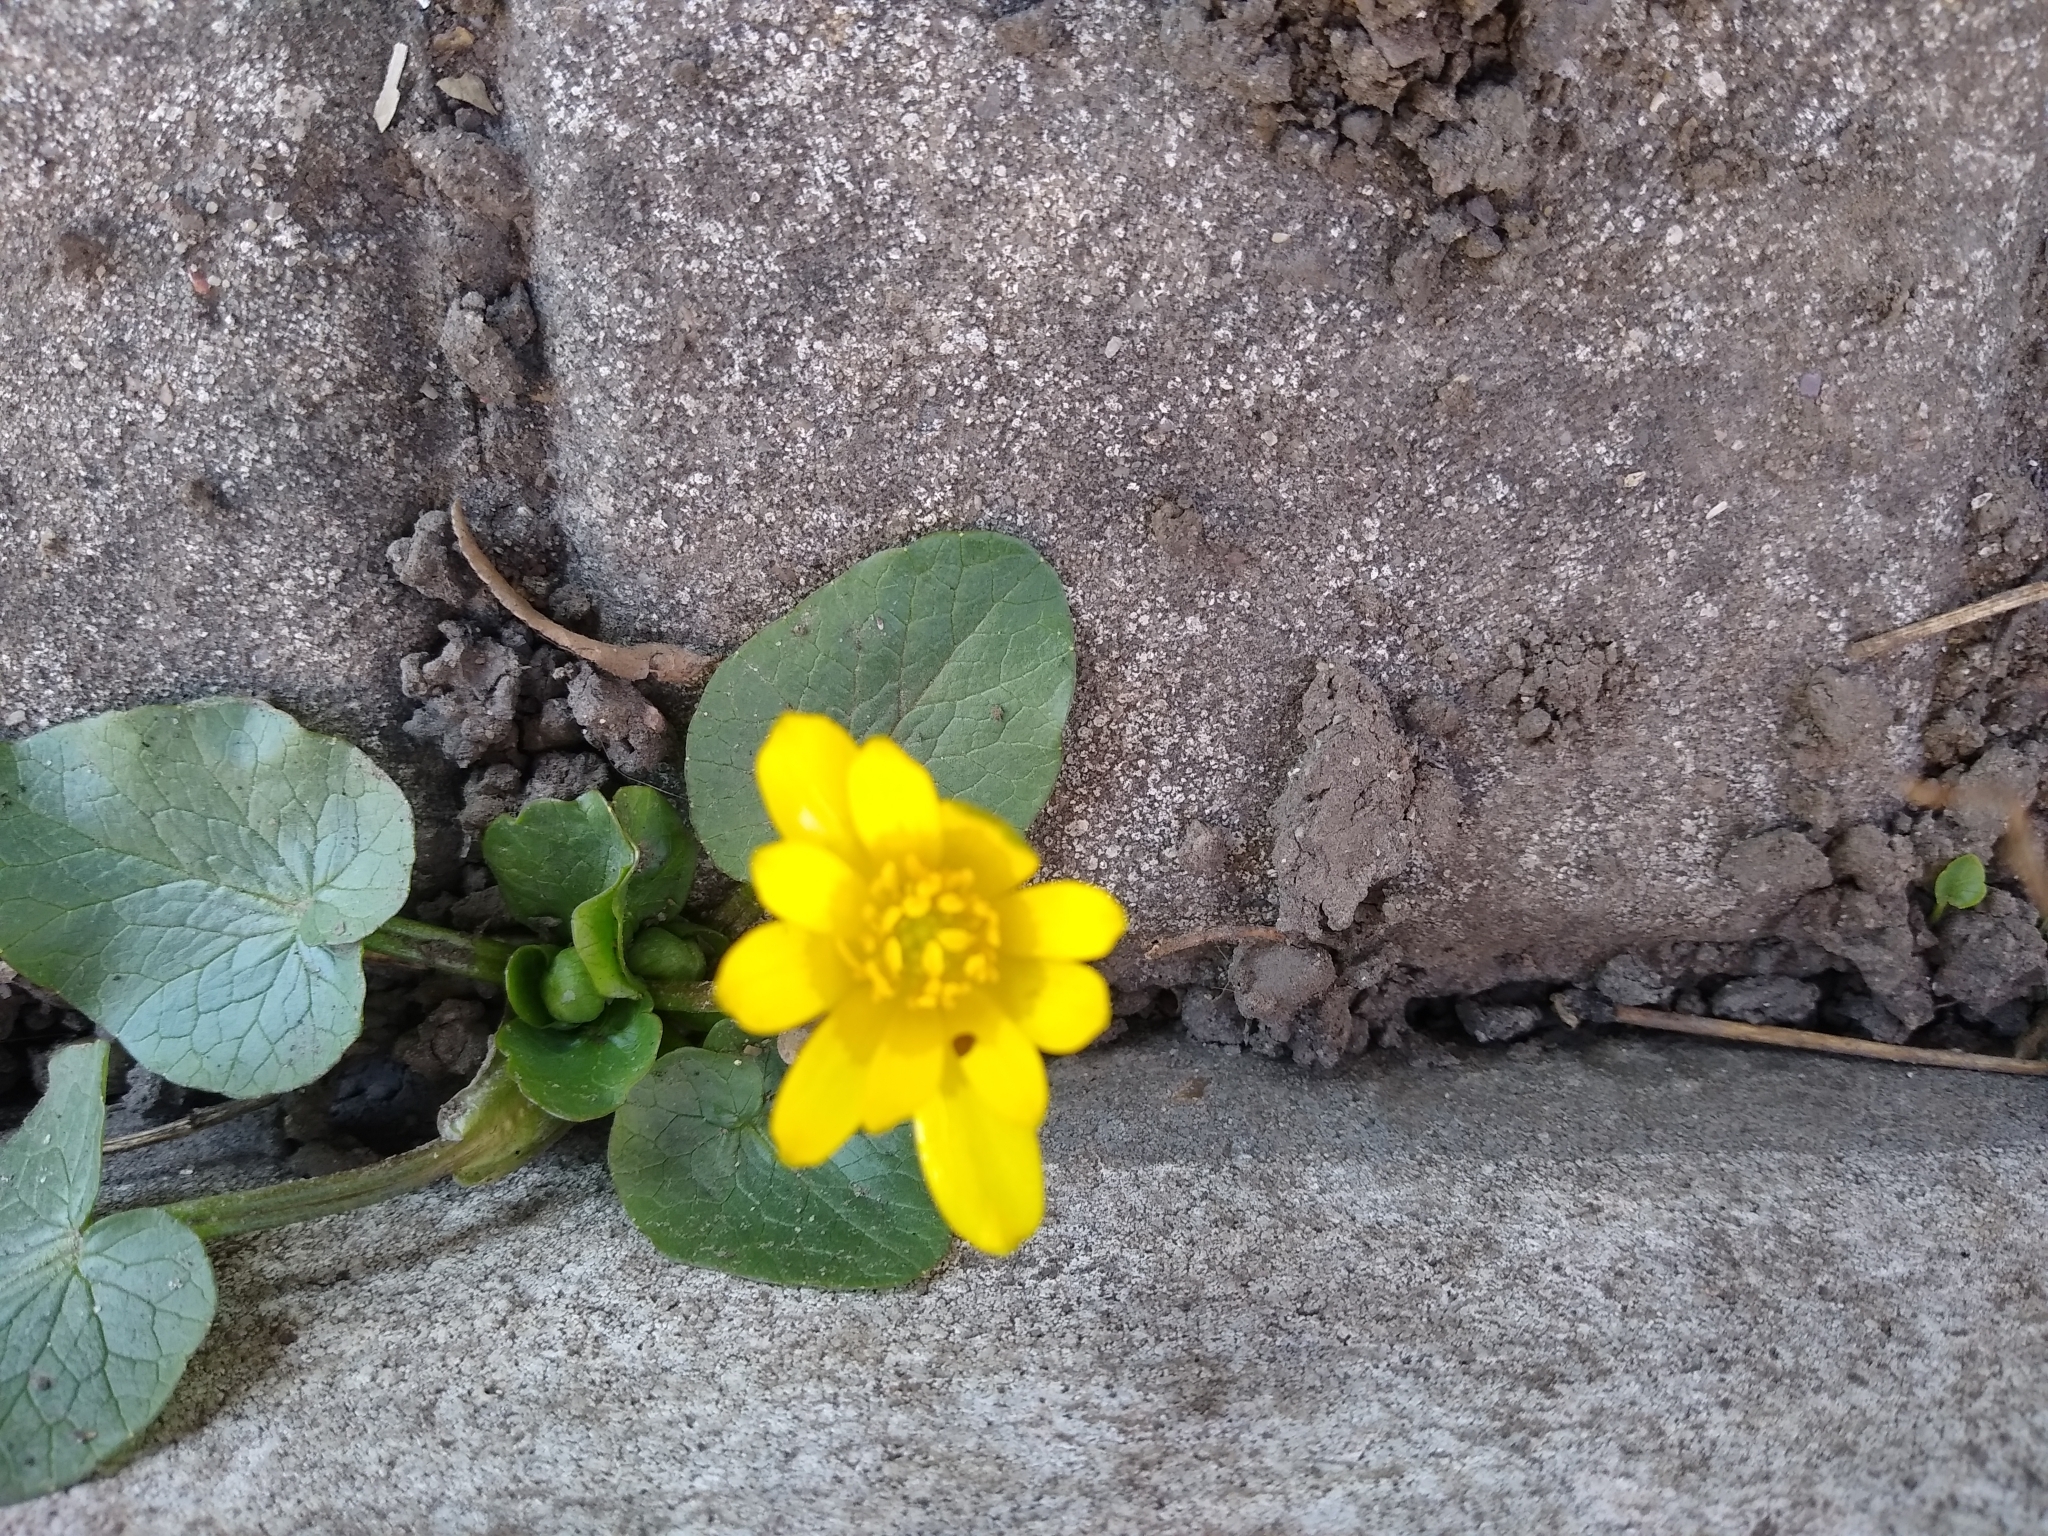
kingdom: Plantae
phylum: Tracheophyta
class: Magnoliopsida
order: Ranunculales
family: Ranunculaceae
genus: Ficaria
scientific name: Ficaria verna
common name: Lesser celandine
